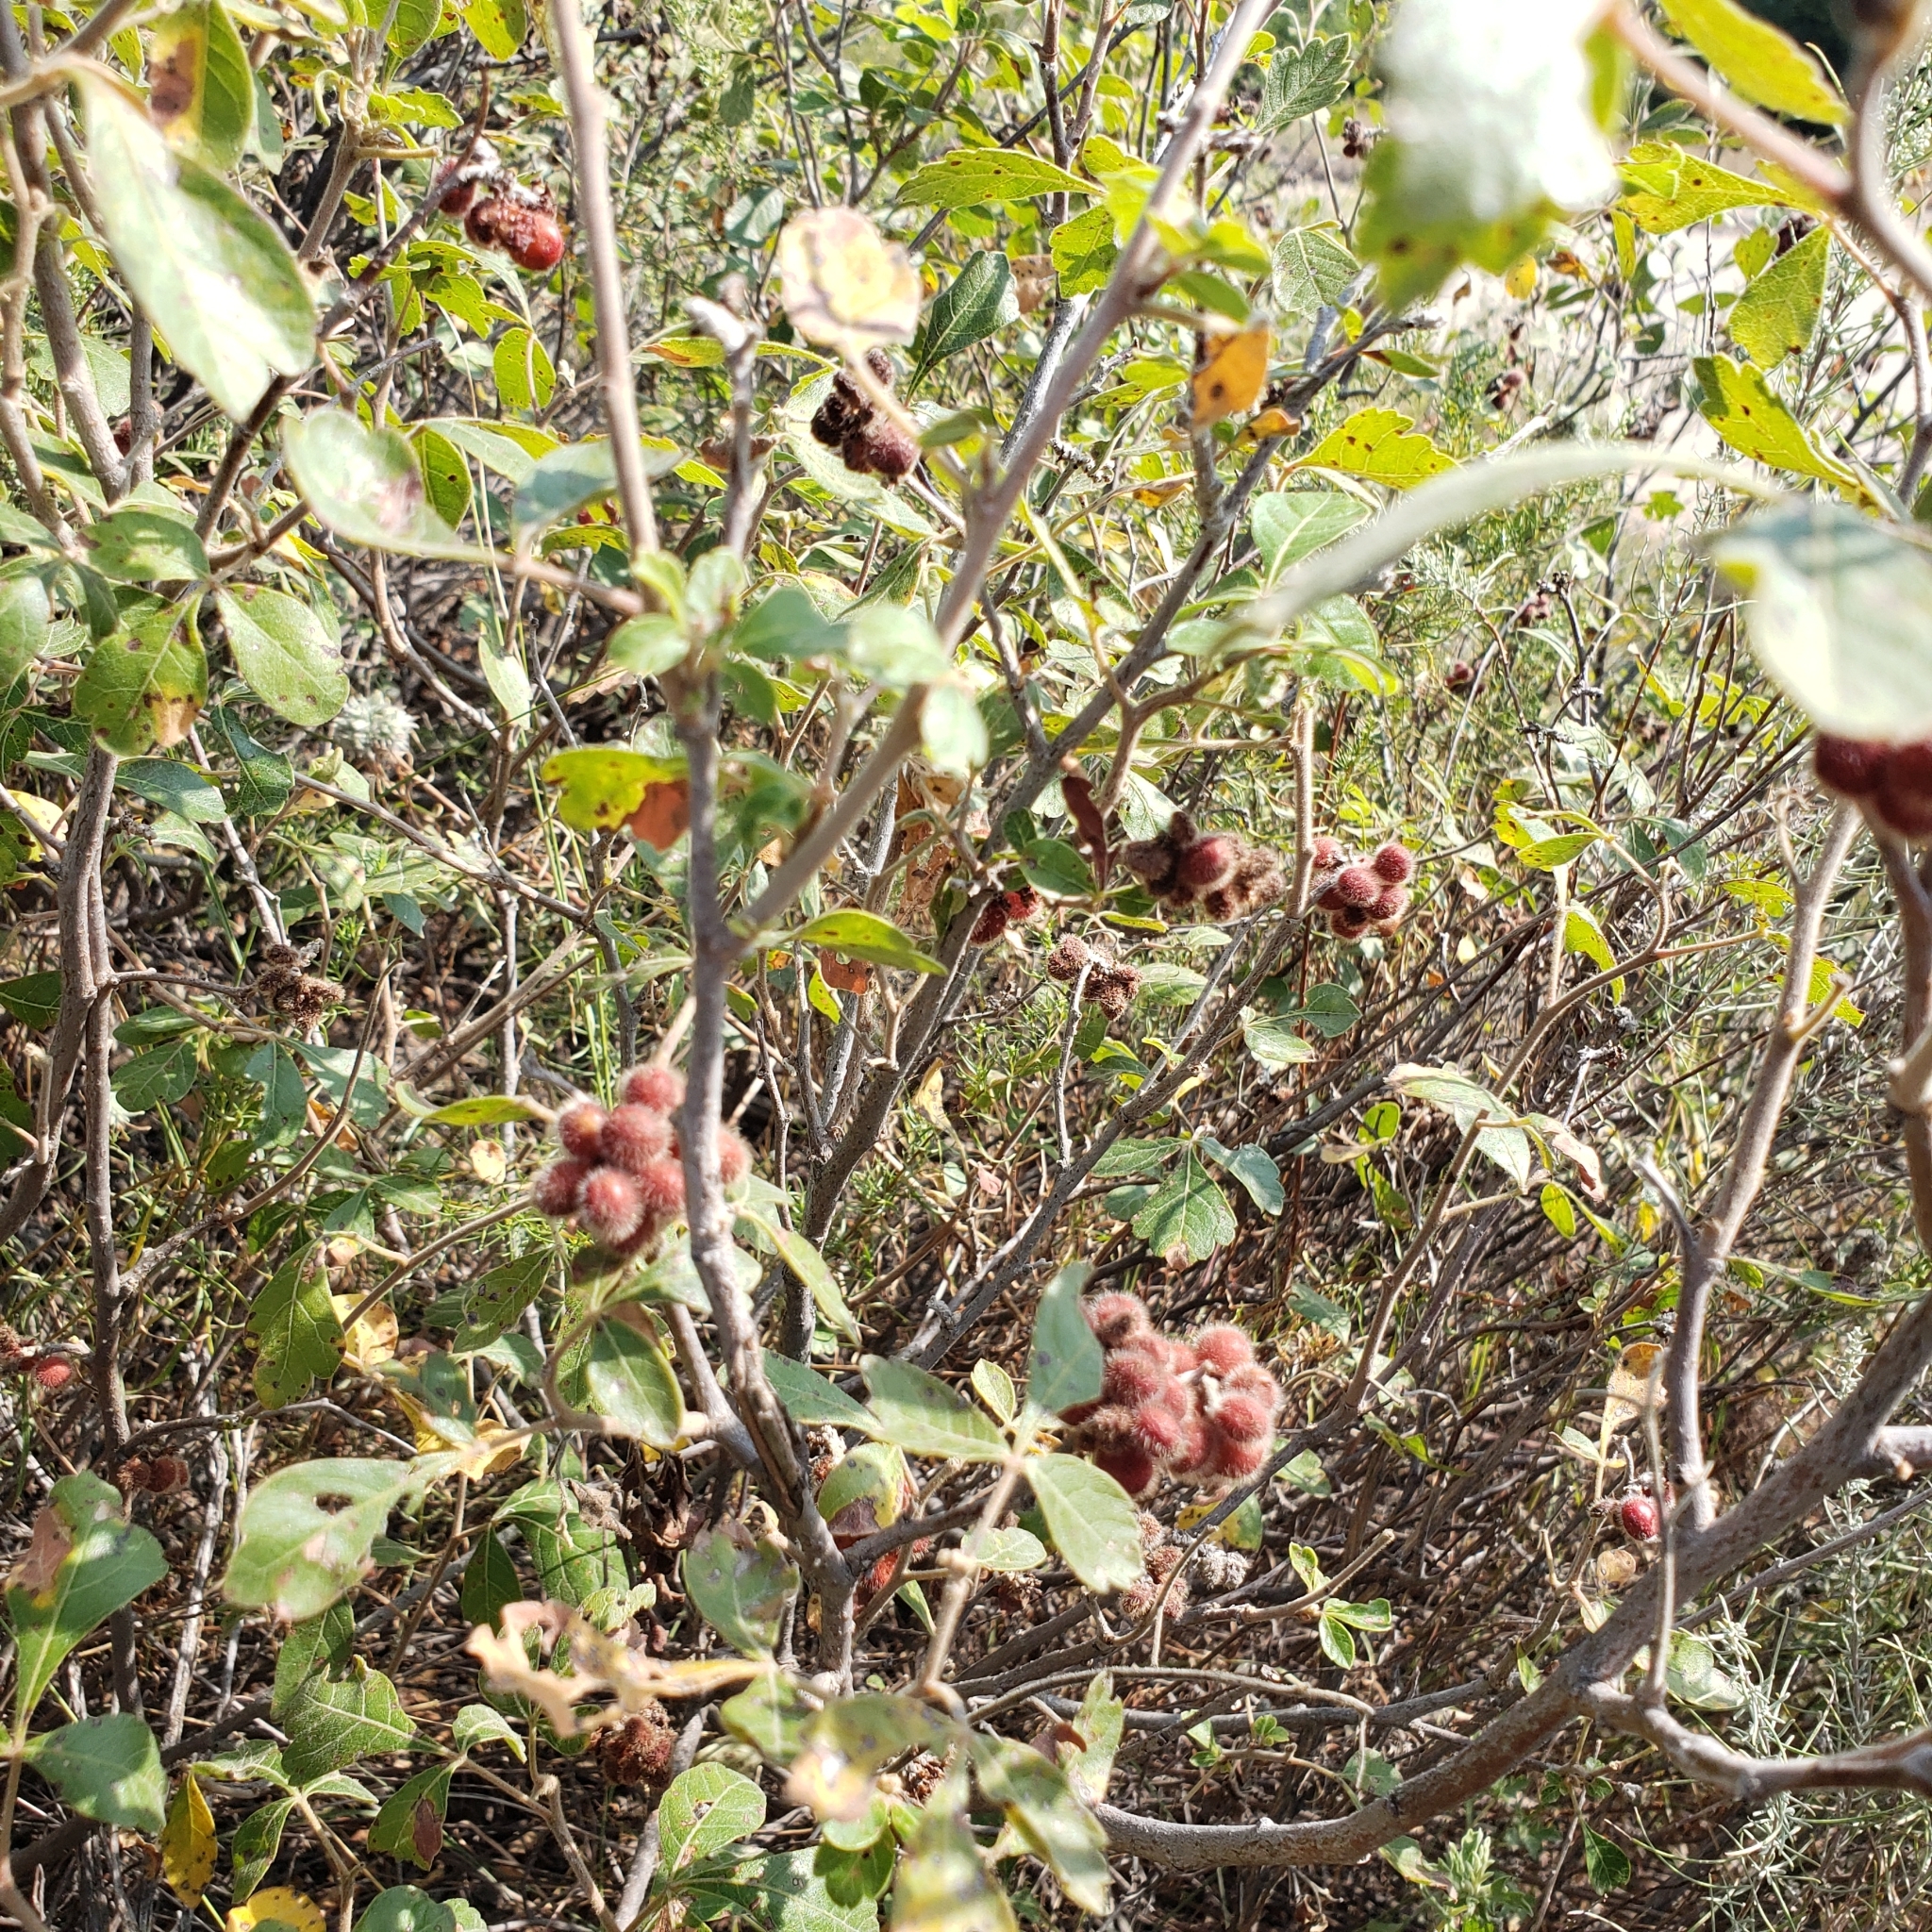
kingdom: Plantae
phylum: Tracheophyta
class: Magnoliopsida
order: Sapindales
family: Anacardiaceae
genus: Rhus
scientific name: Rhus aromatica
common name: Aromatic sumac
